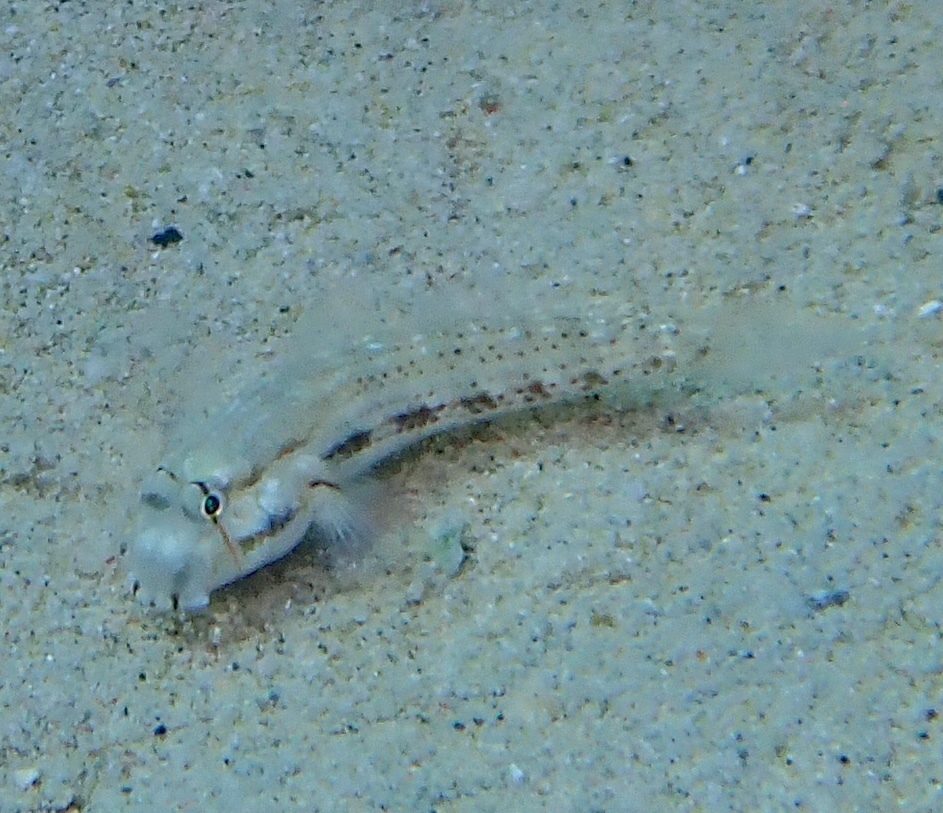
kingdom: Animalia
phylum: Chordata
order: Perciformes
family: Gobiidae
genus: Gnatholepis
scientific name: Gnatholepis thompsoni
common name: Goldspot goby
